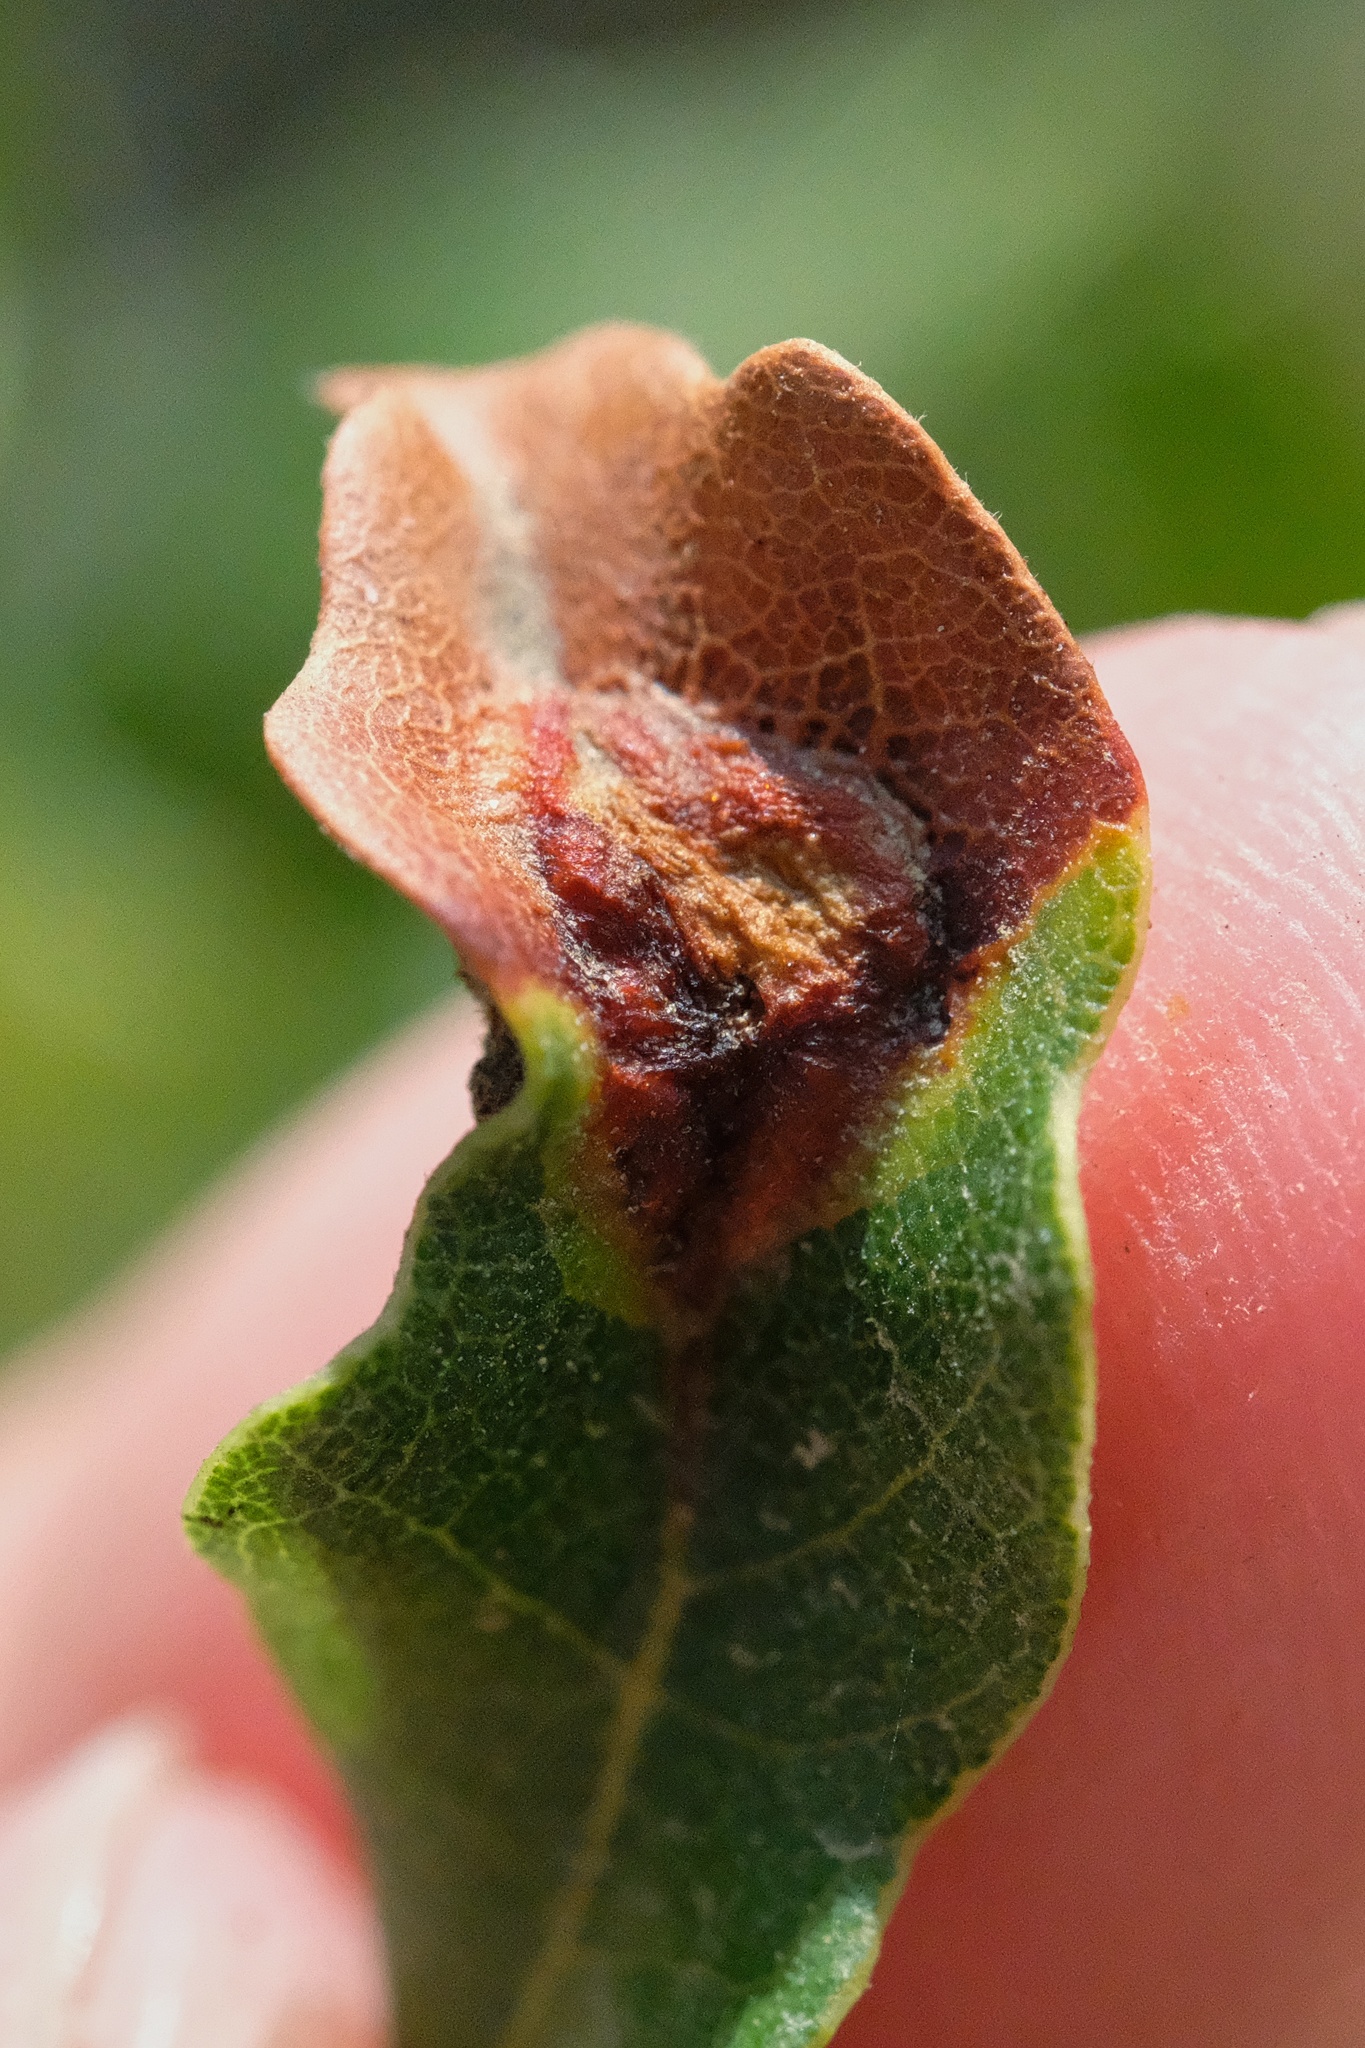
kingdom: Animalia
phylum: Arthropoda
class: Insecta
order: Hymenoptera
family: Cynipidae
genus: Neuroterus
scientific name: Neuroterus
